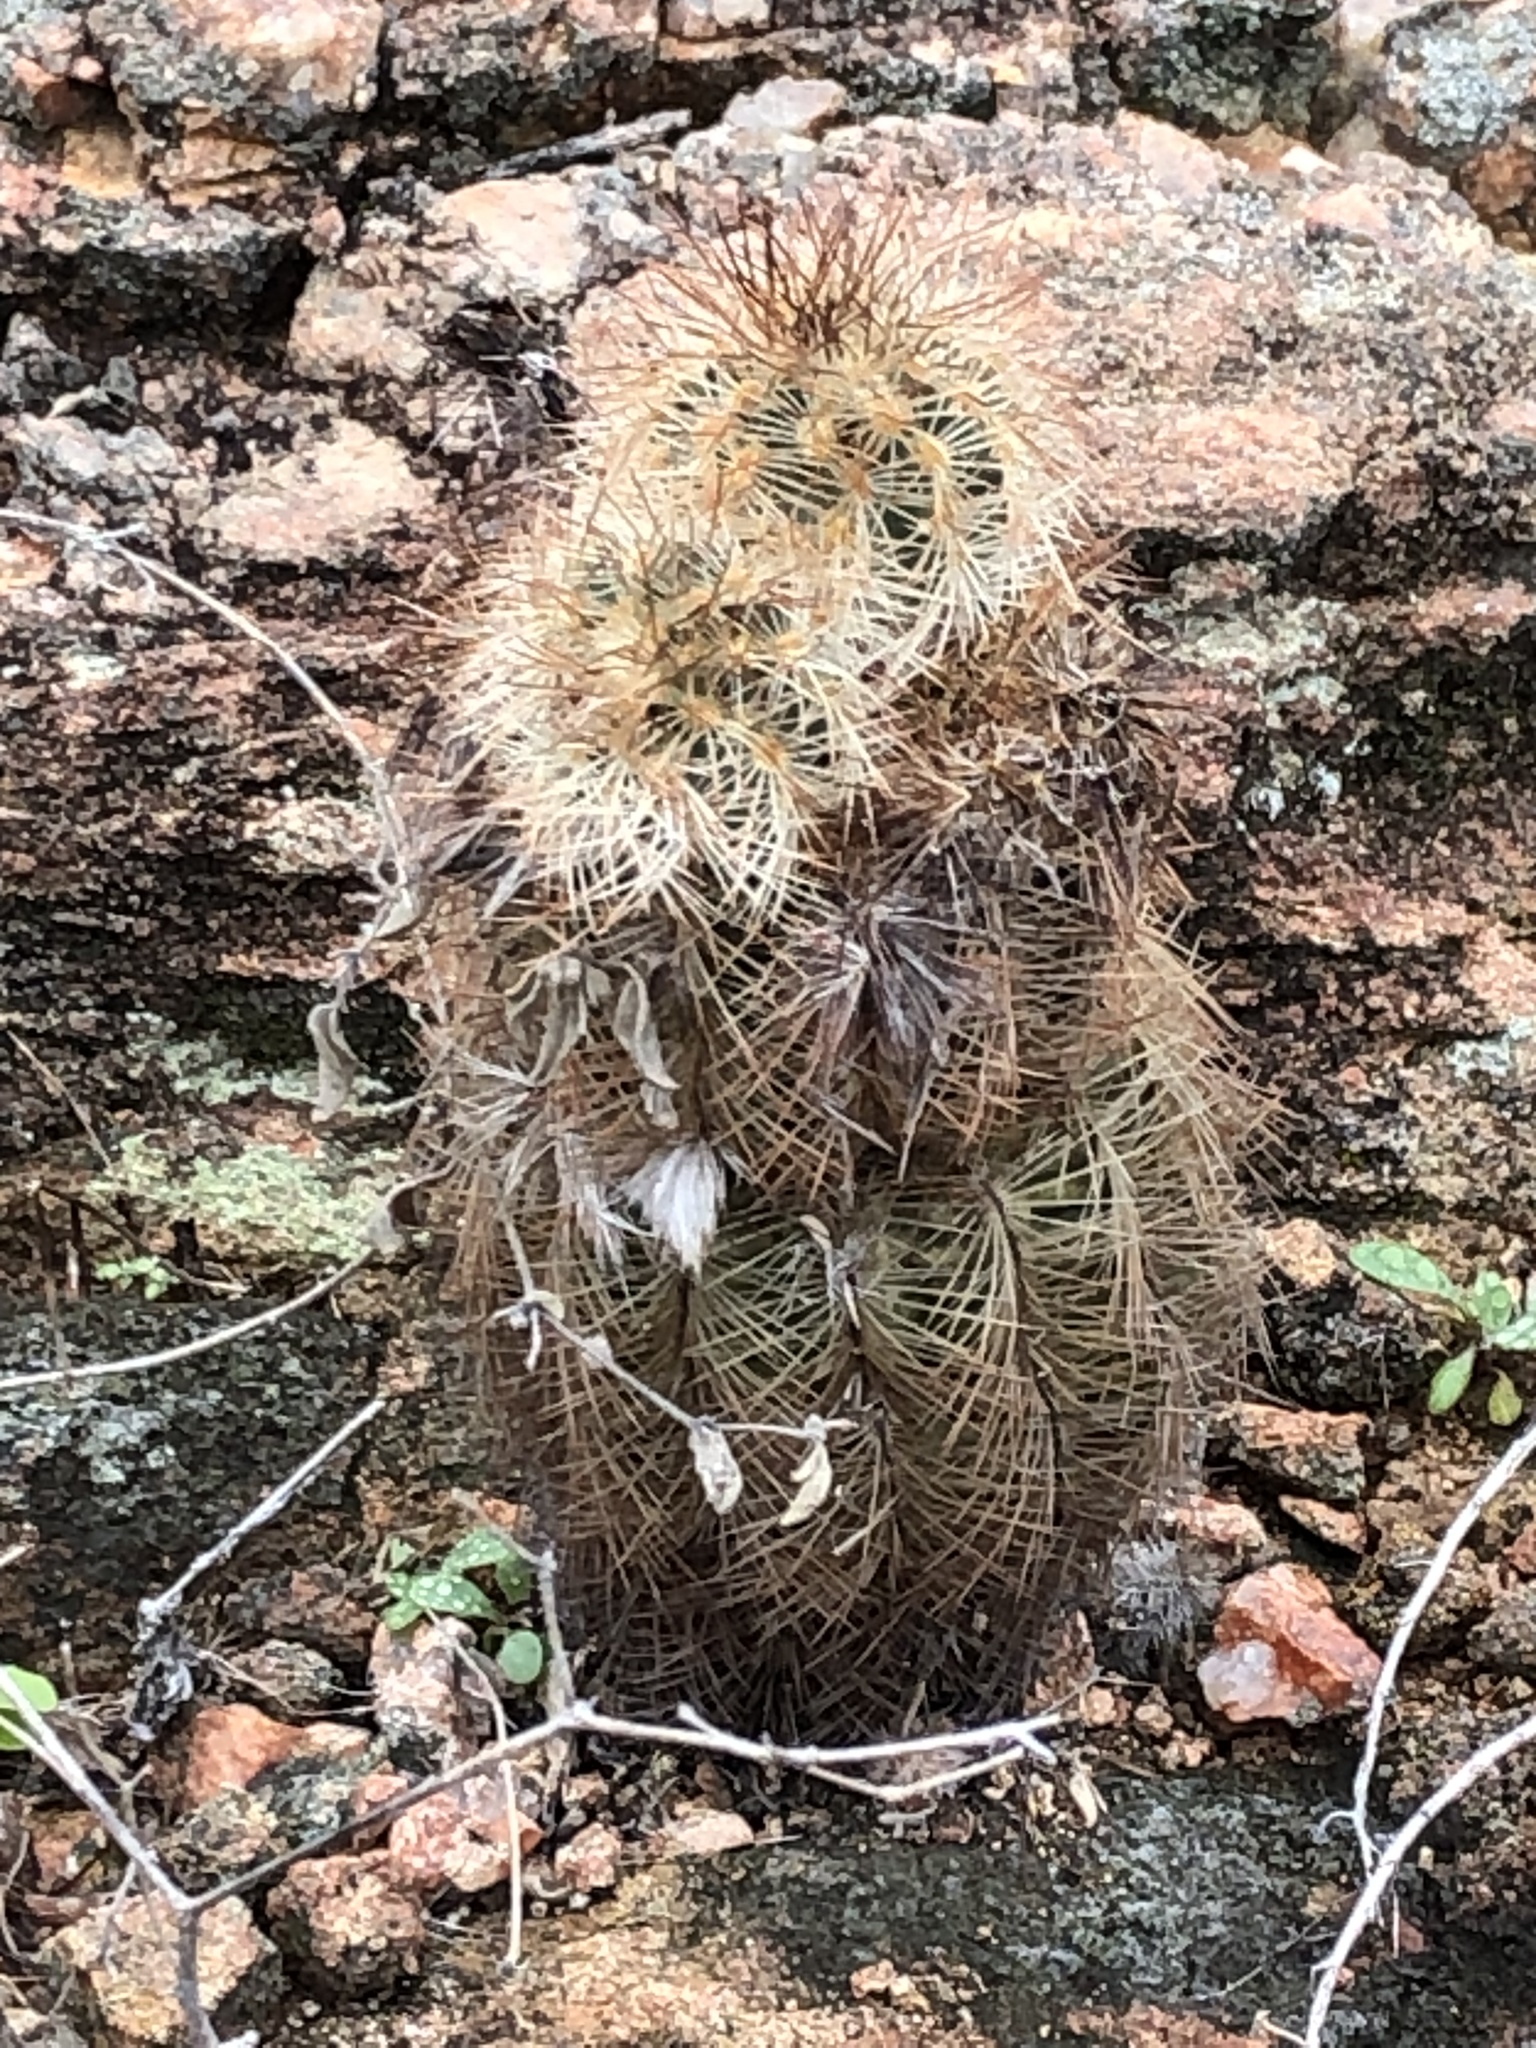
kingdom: Plantae
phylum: Tracheophyta
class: Magnoliopsida
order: Caryophyllales
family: Cactaceae
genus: Echinocereus
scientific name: Echinocereus reichenbachii
